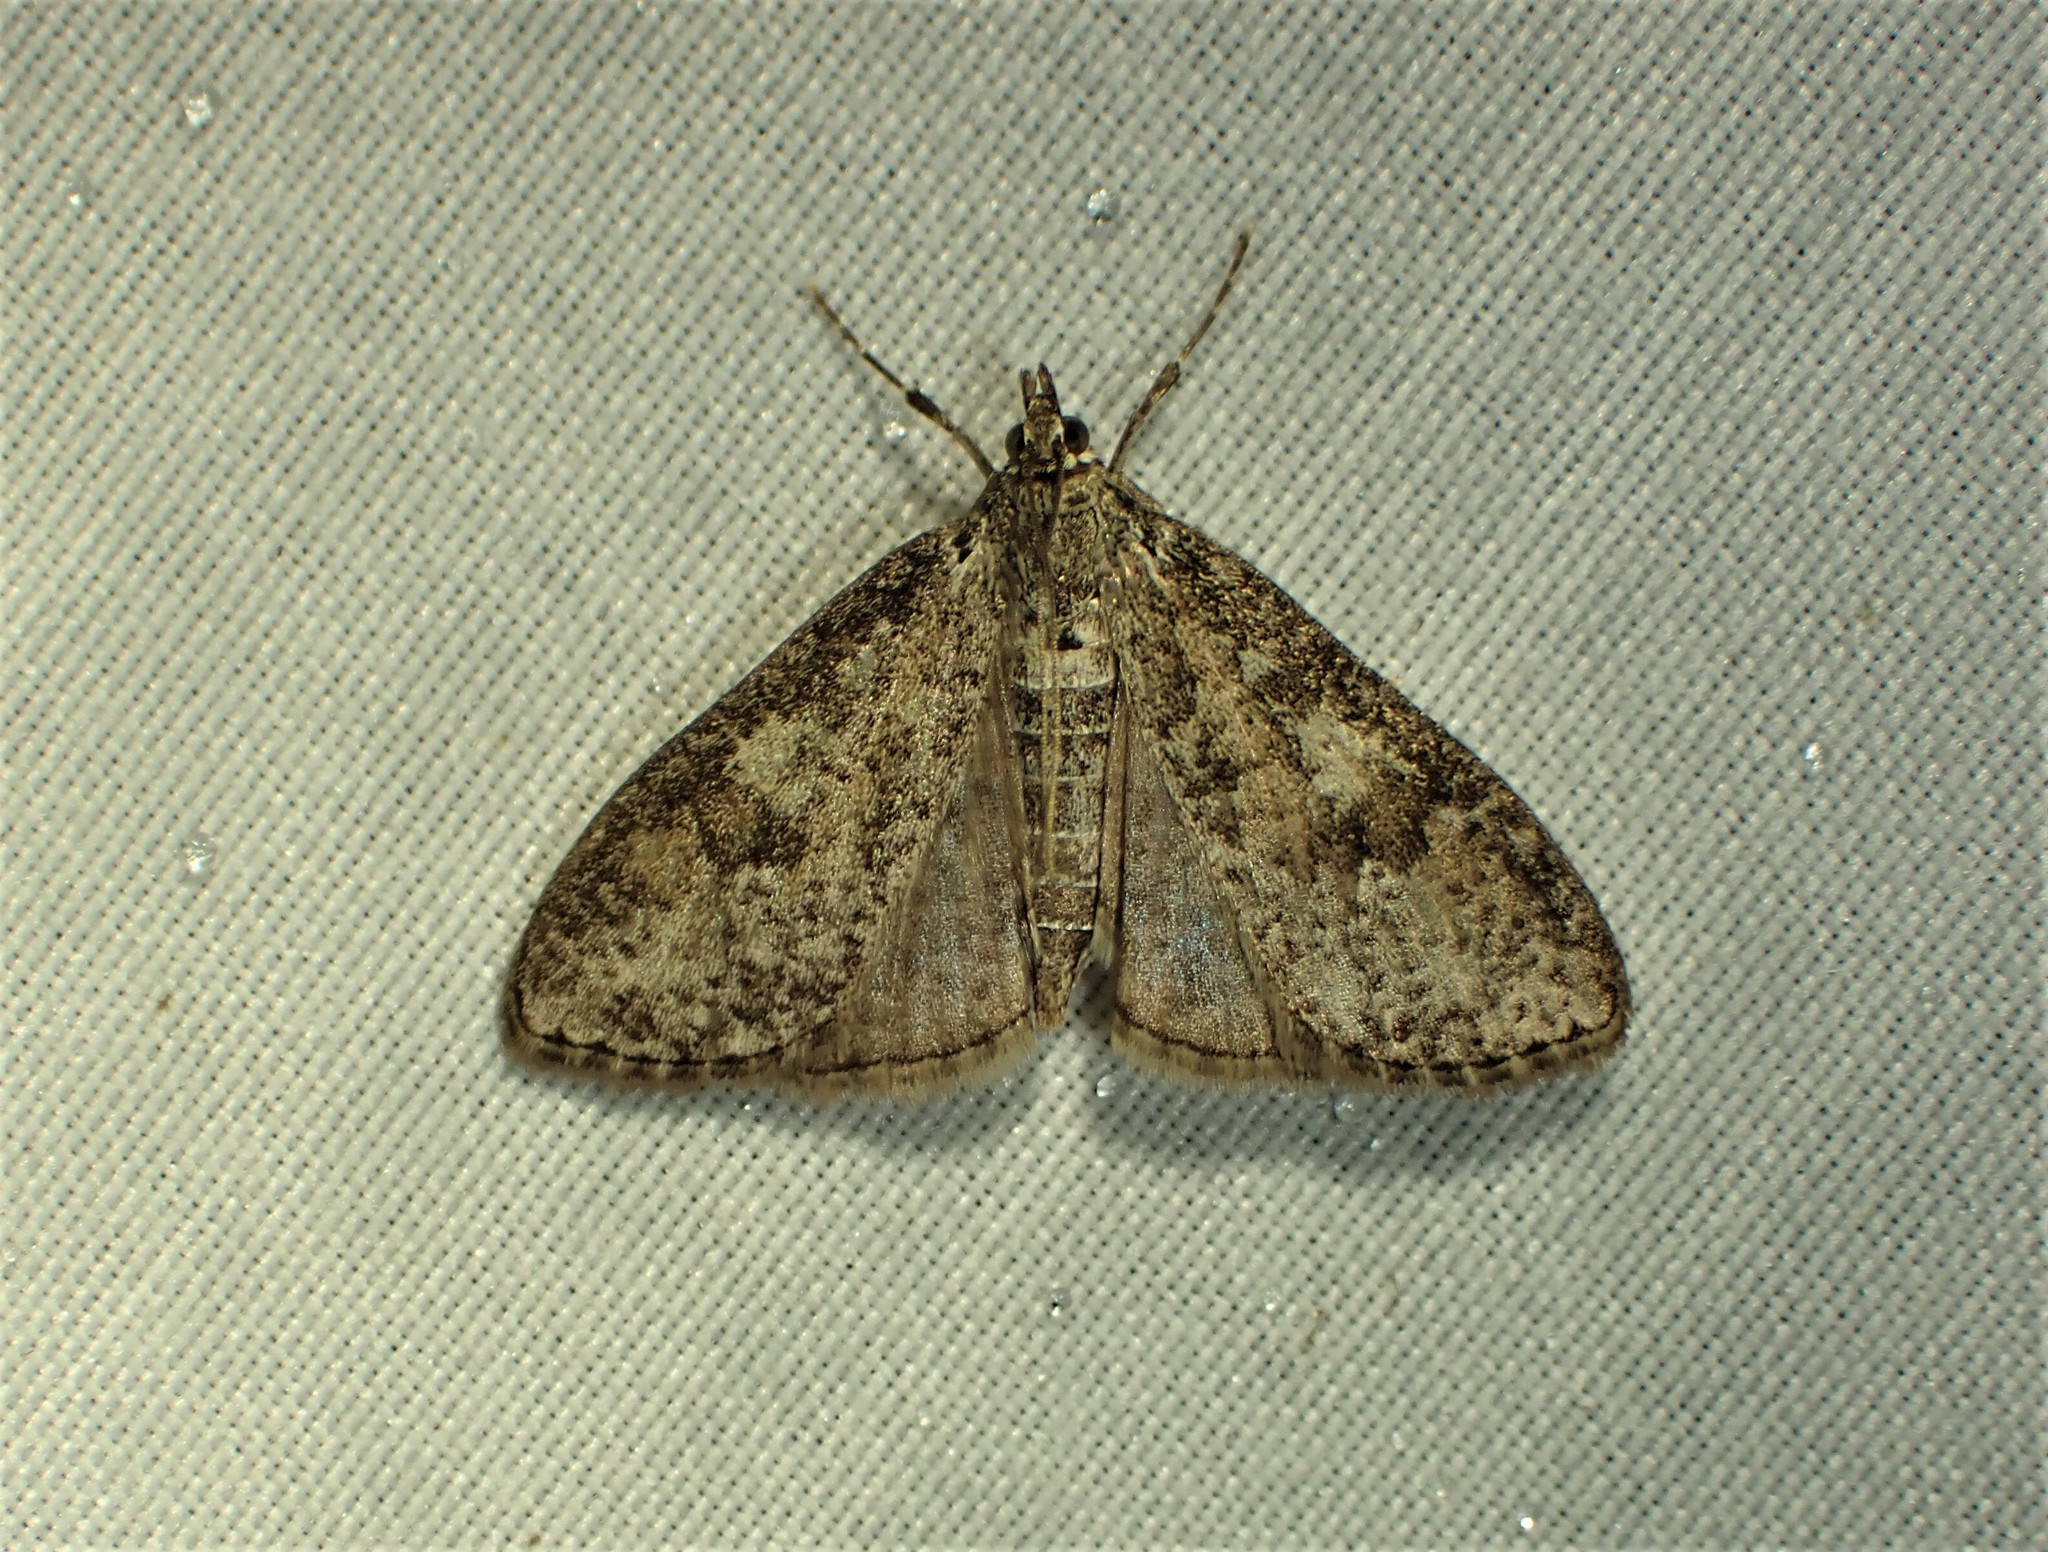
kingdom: Animalia
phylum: Arthropoda
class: Insecta
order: Lepidoptera
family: Crambidae
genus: Palpita
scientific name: Palpita arsaltealis
